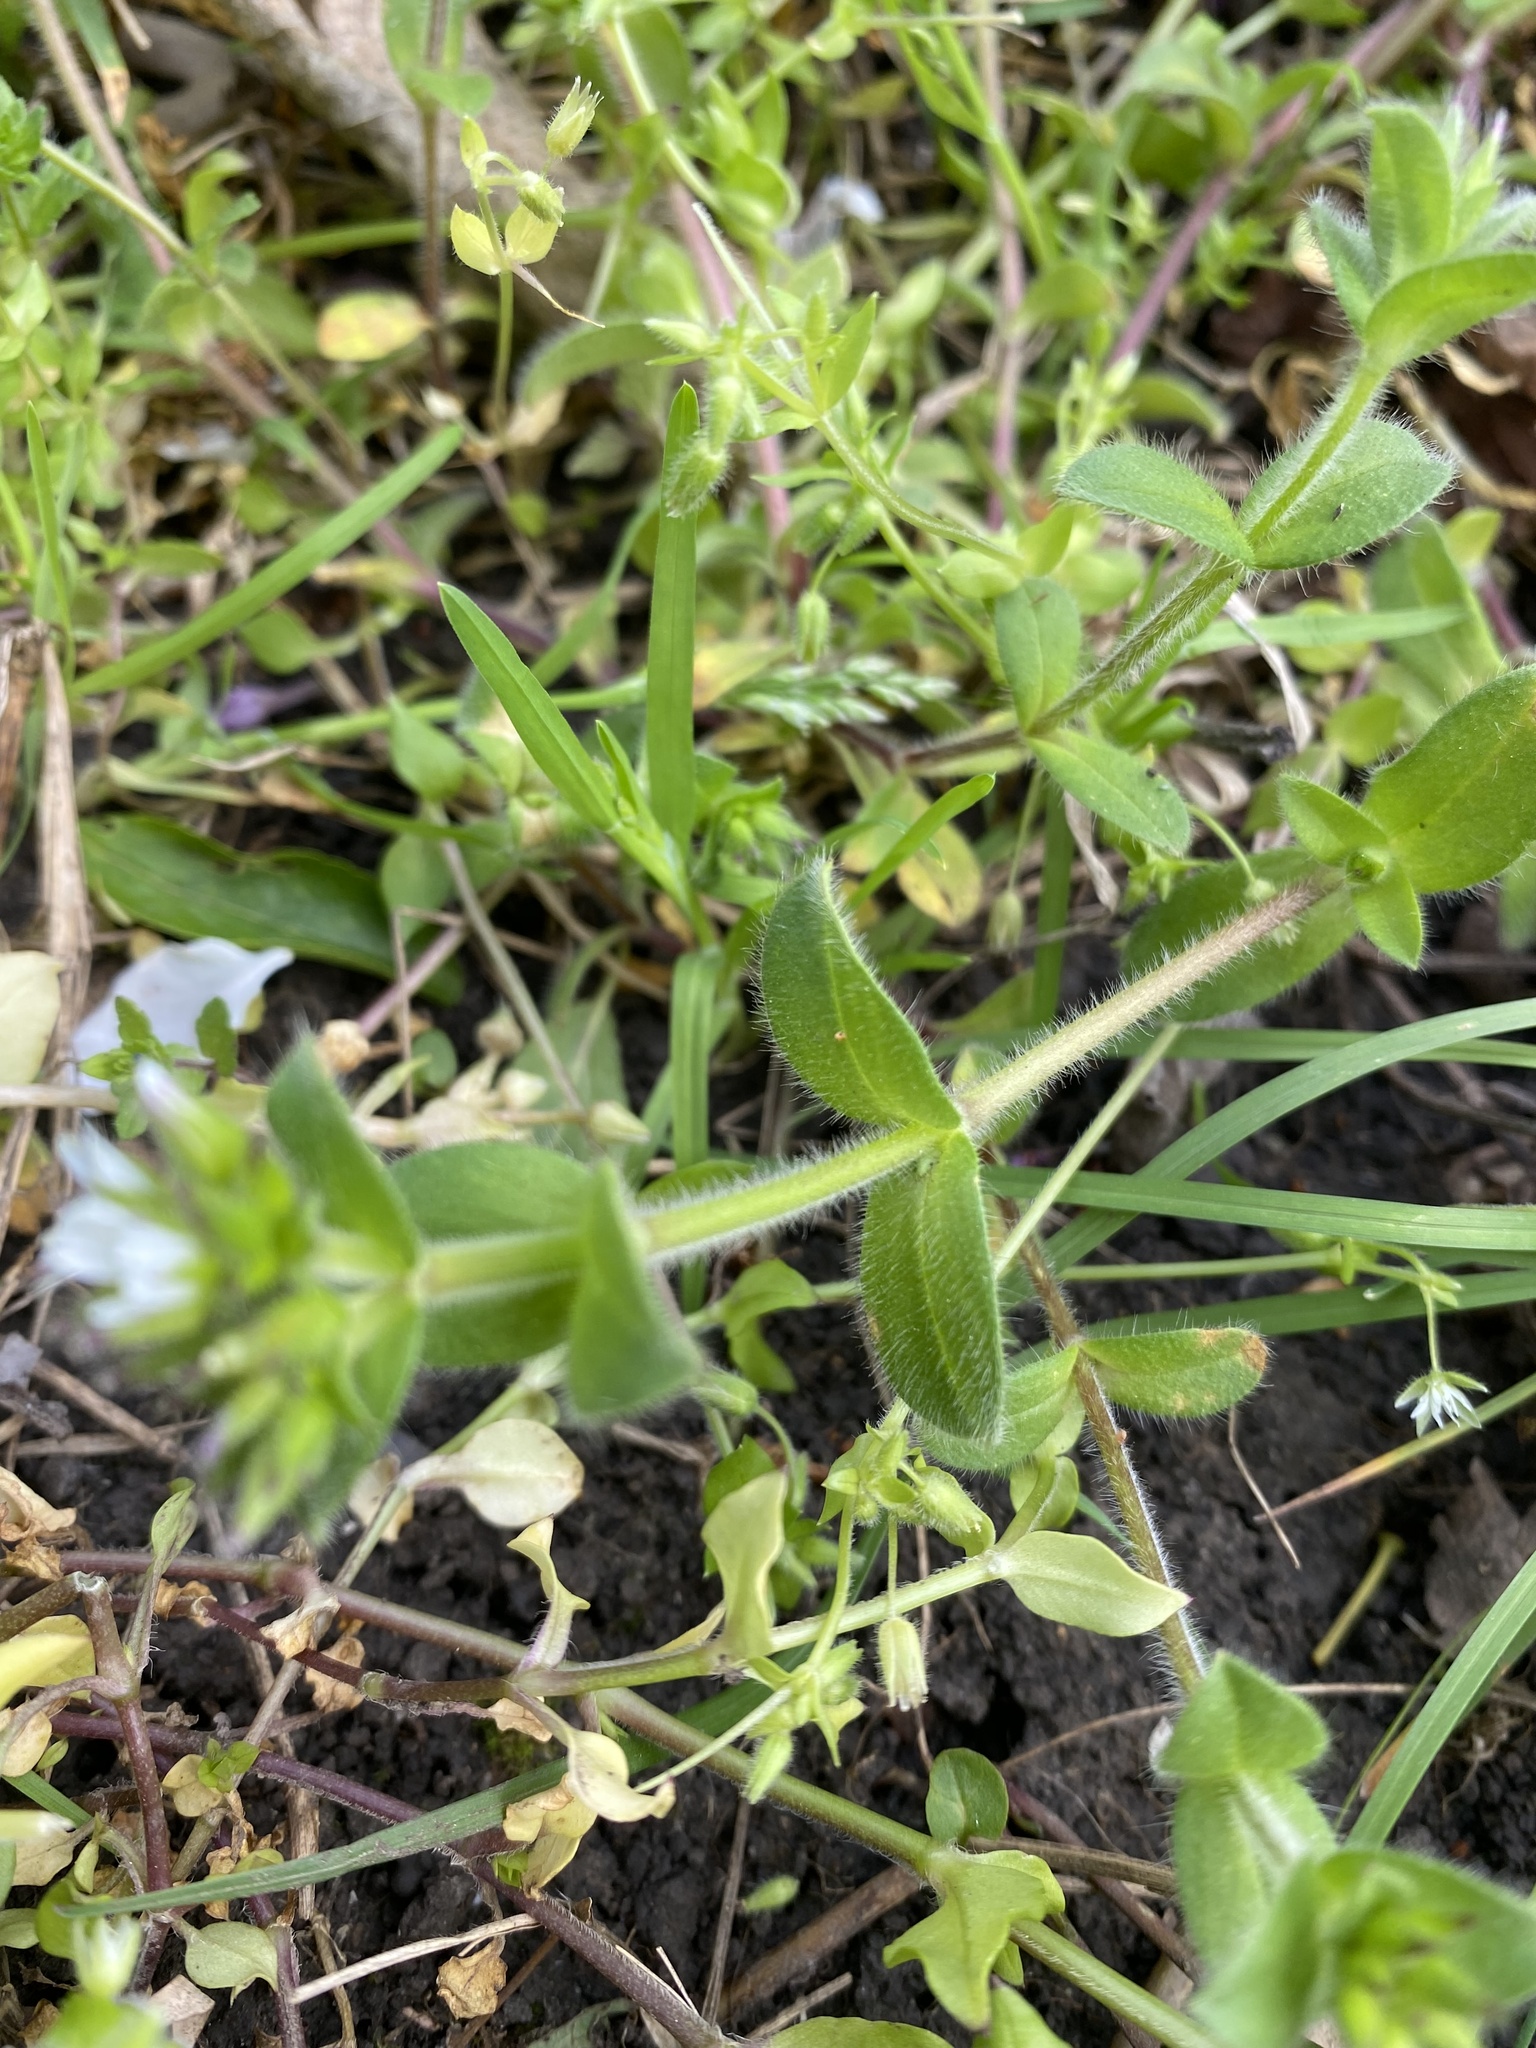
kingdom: Plantae
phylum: Tracheophyta
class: Magnoliopsida
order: Caryophyllales
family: Caryophyllaceae
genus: Cerastium
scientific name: Cerastium glomeratum
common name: Sticky chickweed
